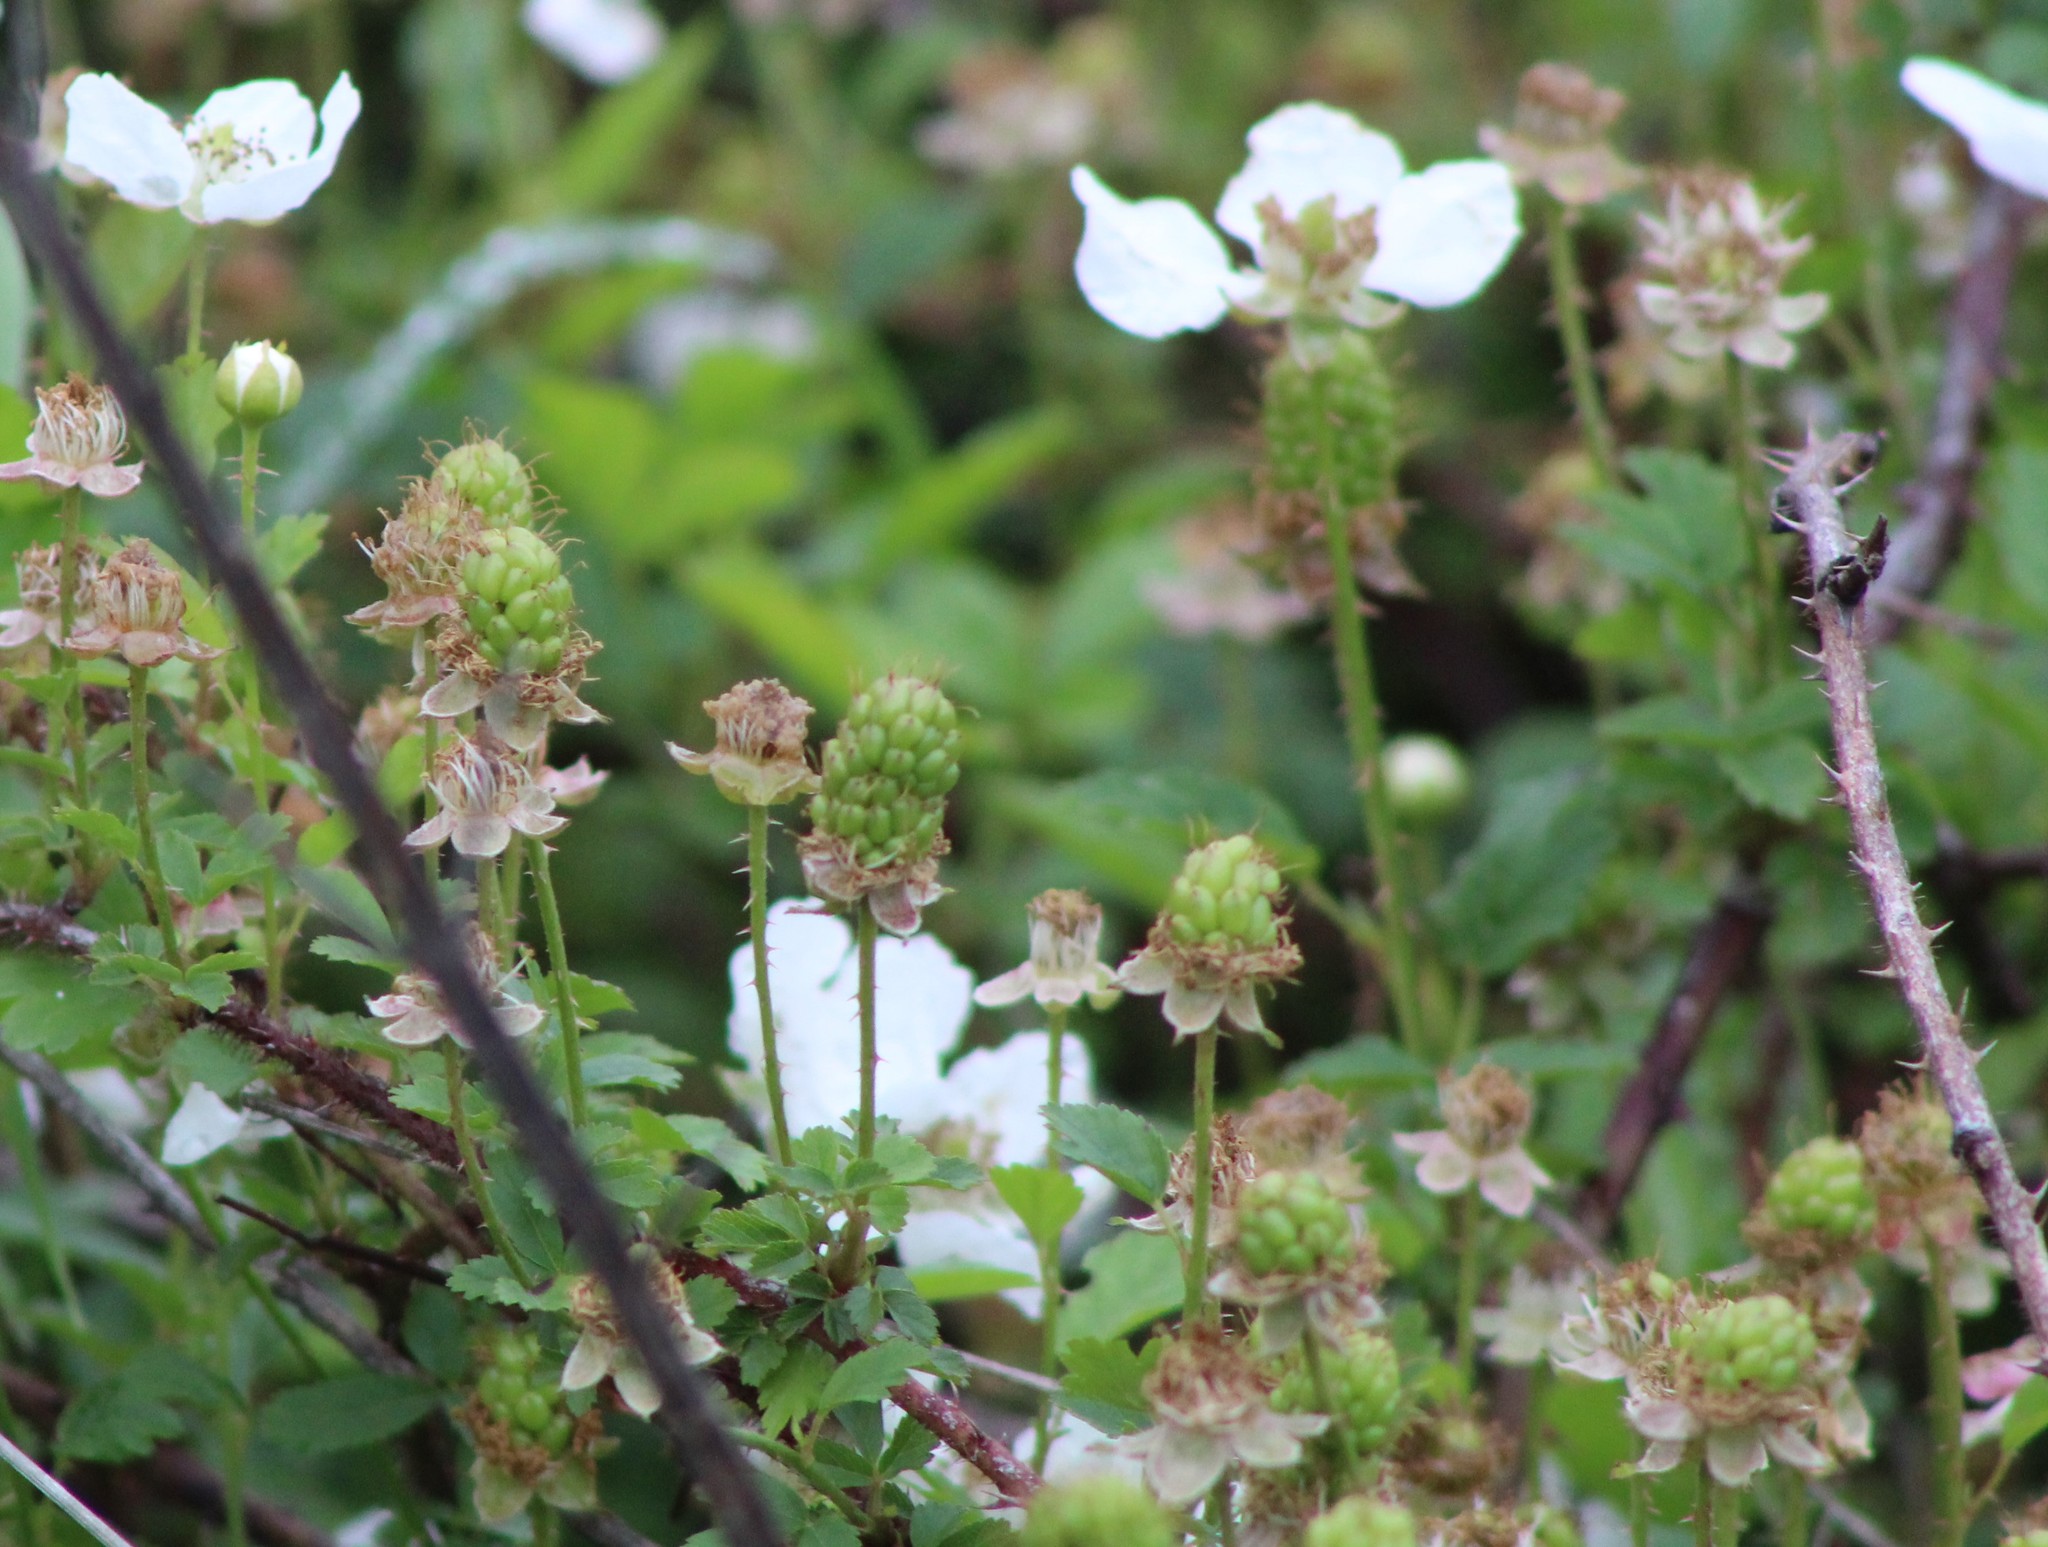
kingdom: Plantae
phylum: Tracheophyta
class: Magnoliopsida
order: Rosales
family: Rosaceae
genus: Rubus
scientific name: Rubus trivialis
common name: Southern dewberry
